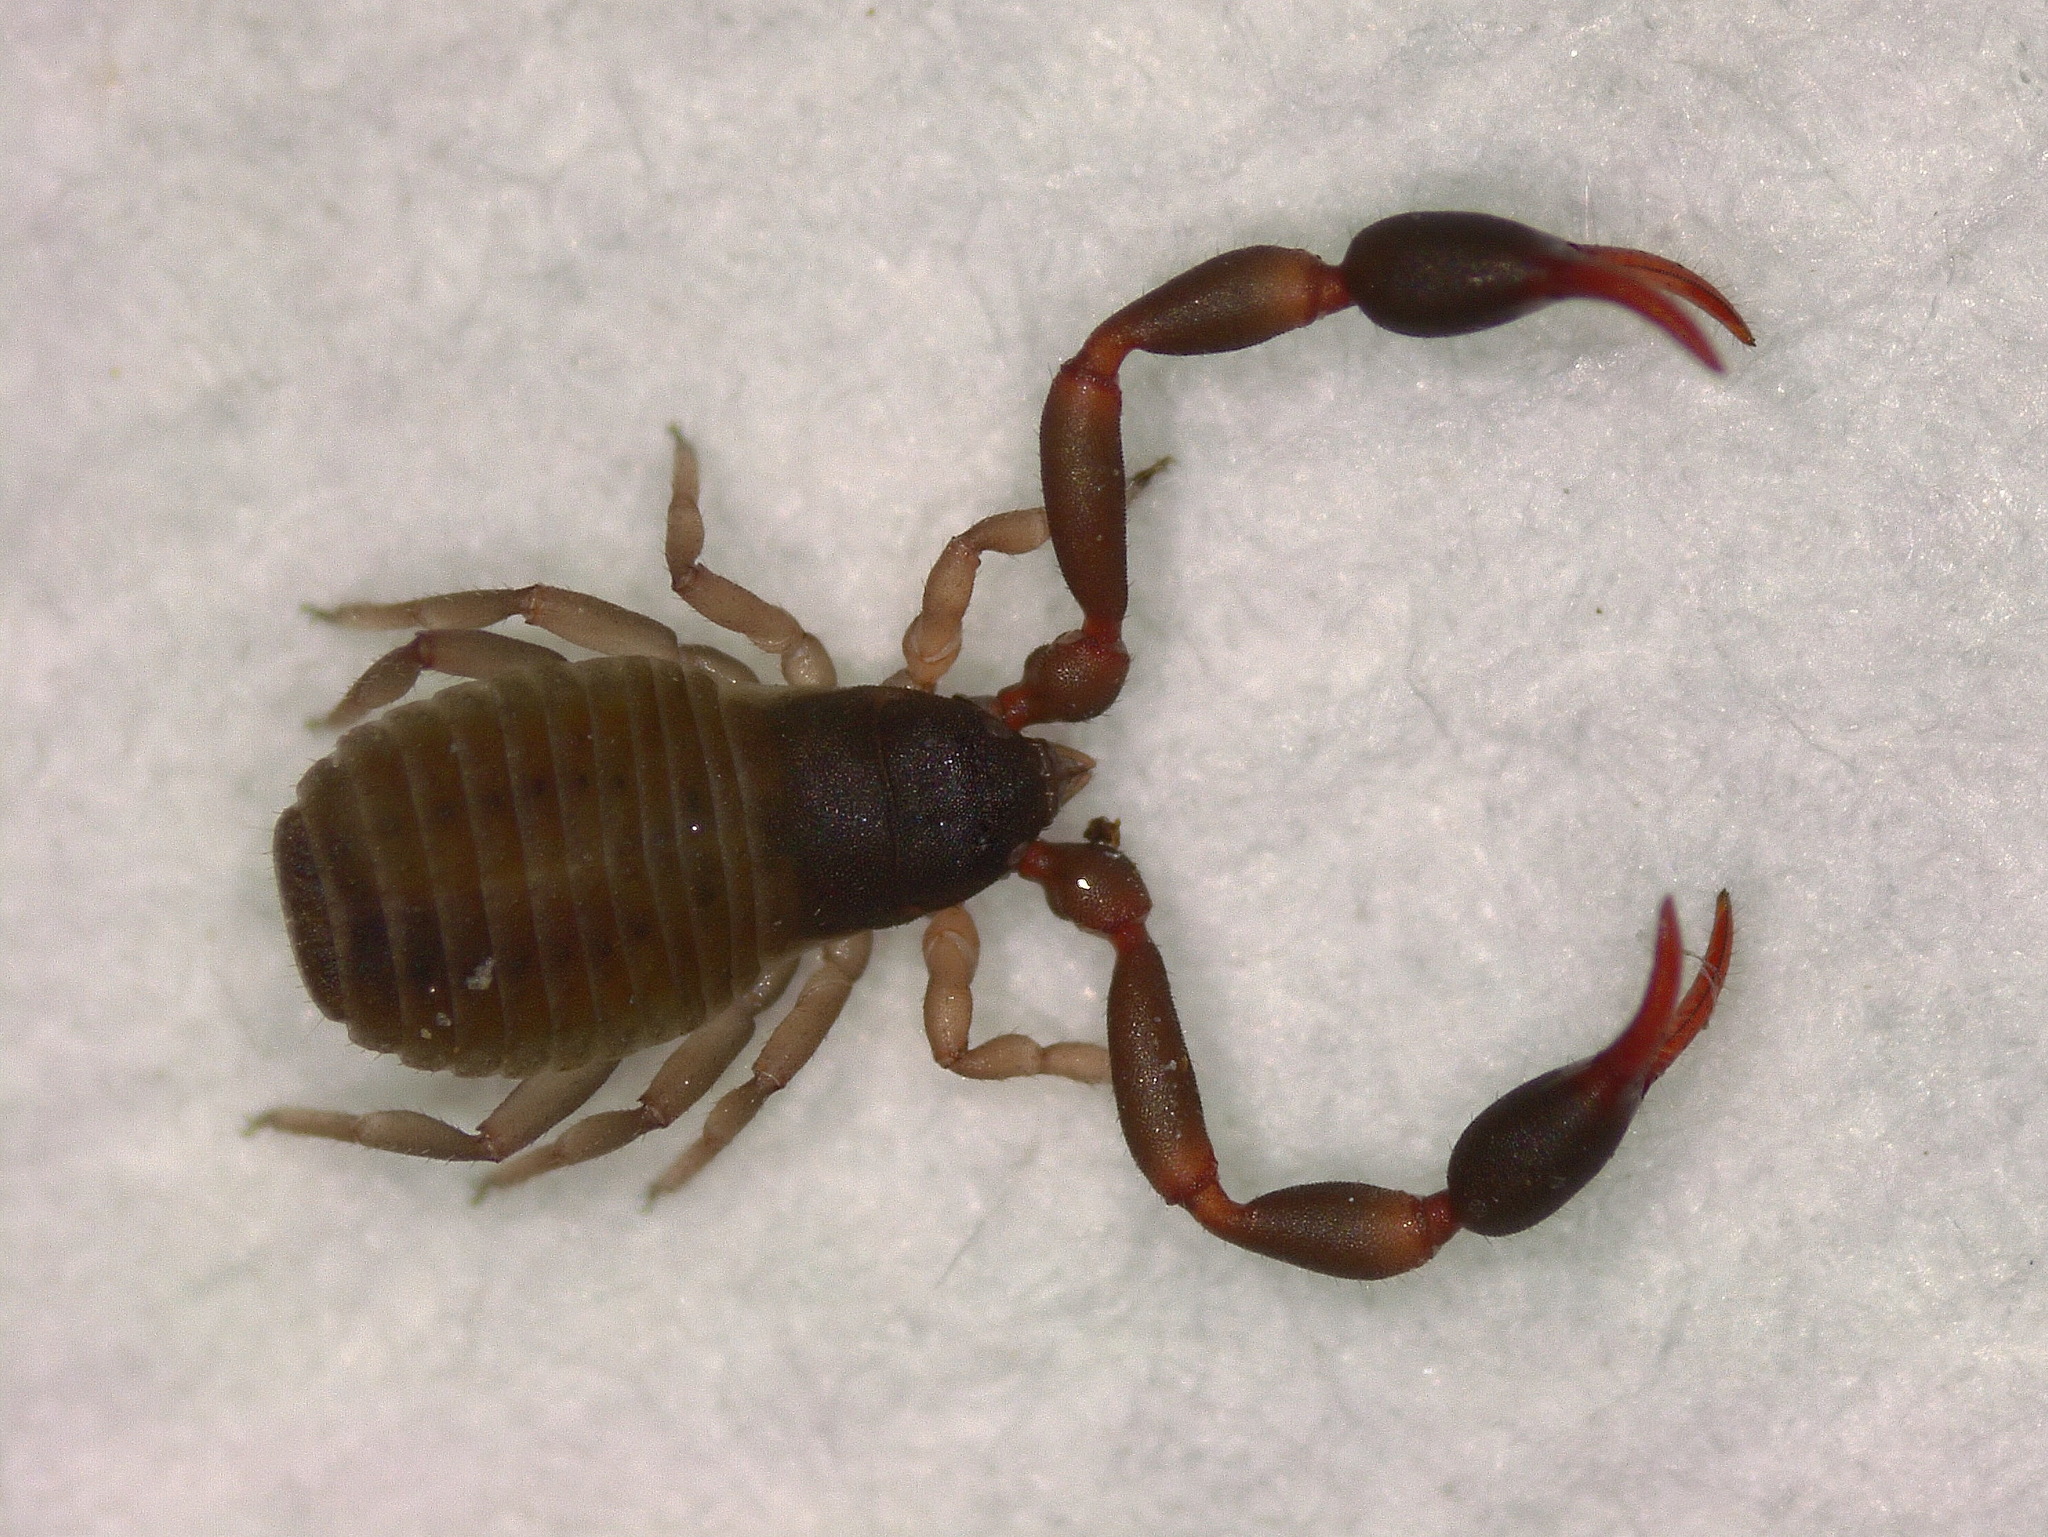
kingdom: Animalia
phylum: Arthropoda
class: Arachnida
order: Pseudoscorpiones
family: Cheliferidae
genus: Dactylochelifer
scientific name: Dactylochelifer latreillii
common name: Marram grass chelifer
